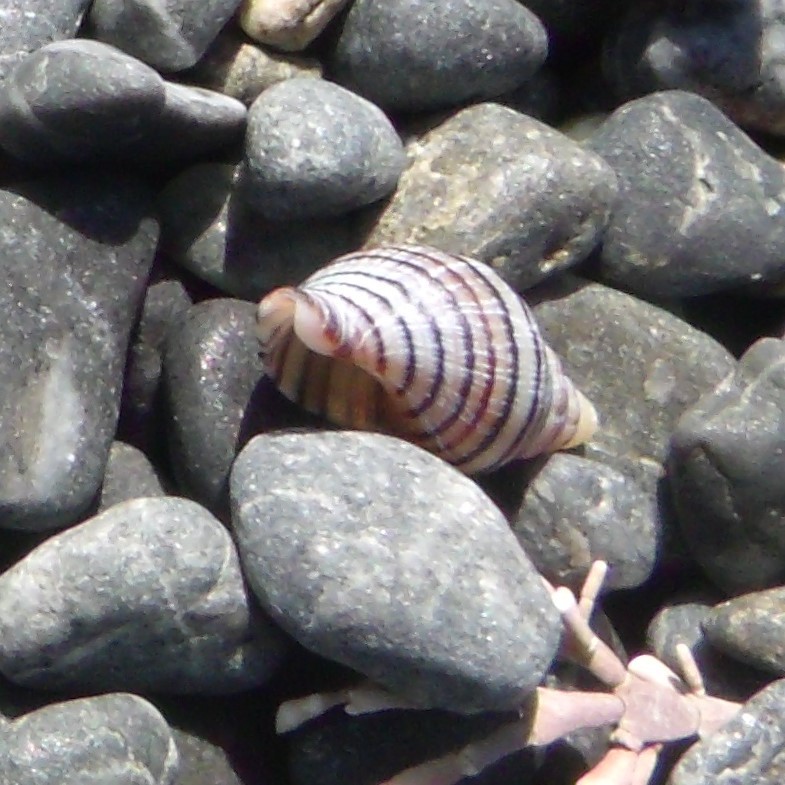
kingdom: Animalia
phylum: Mollusca
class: Gastropoda
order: Neogastropoda
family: Tudiclidae
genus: Buccinulum
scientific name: Buccinulum linea
